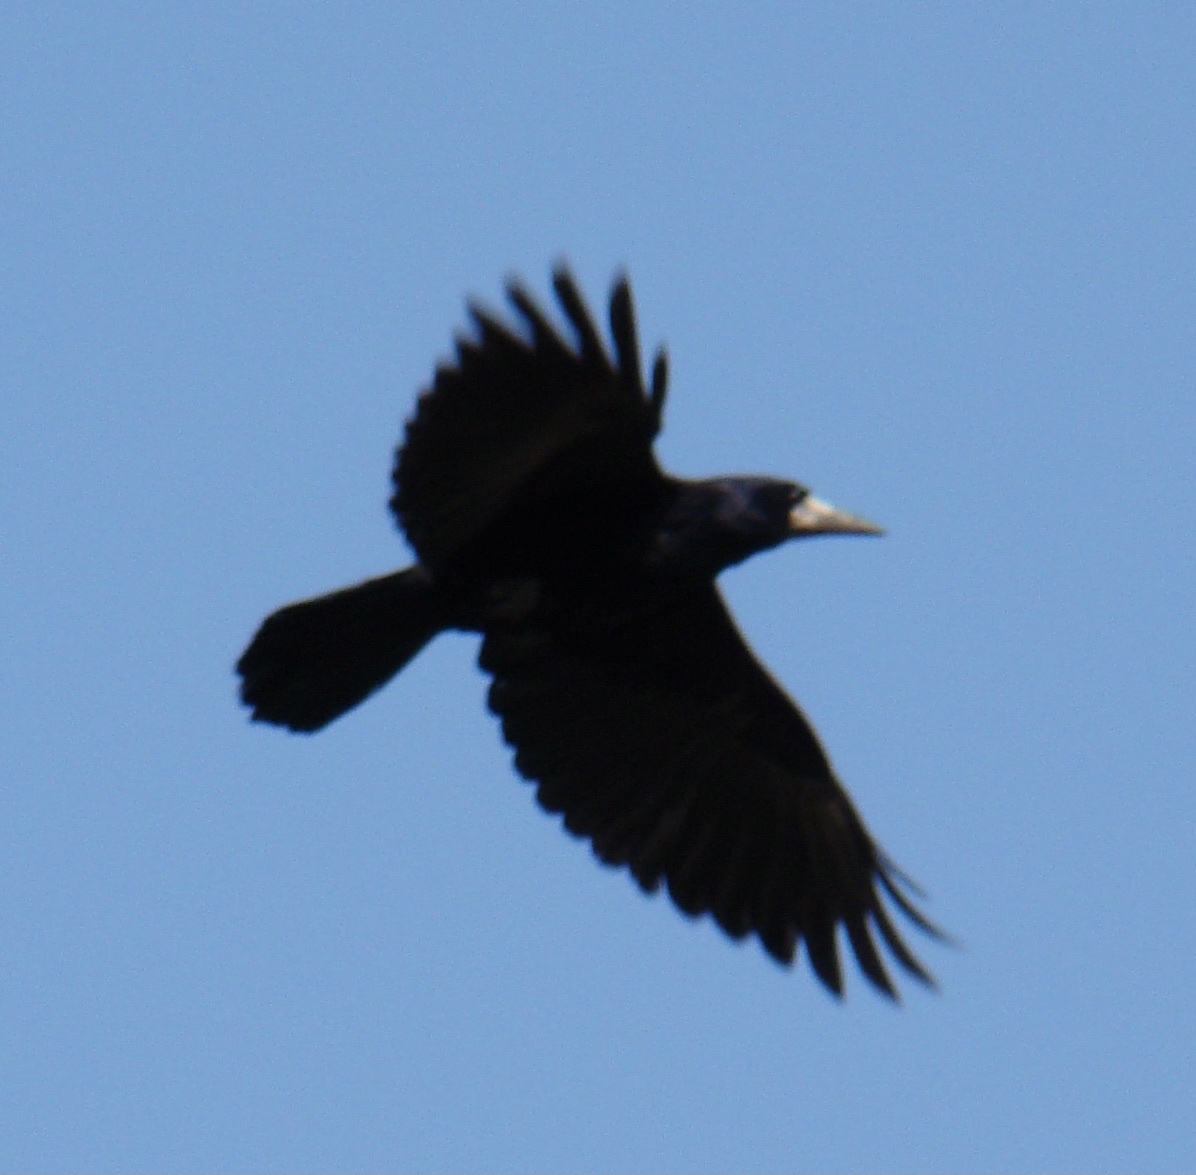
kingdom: Animalia
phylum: Chordata
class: Aves
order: Passeriformes
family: Corvidae
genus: Corvus
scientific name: Corvus frugilegus
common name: Rook
